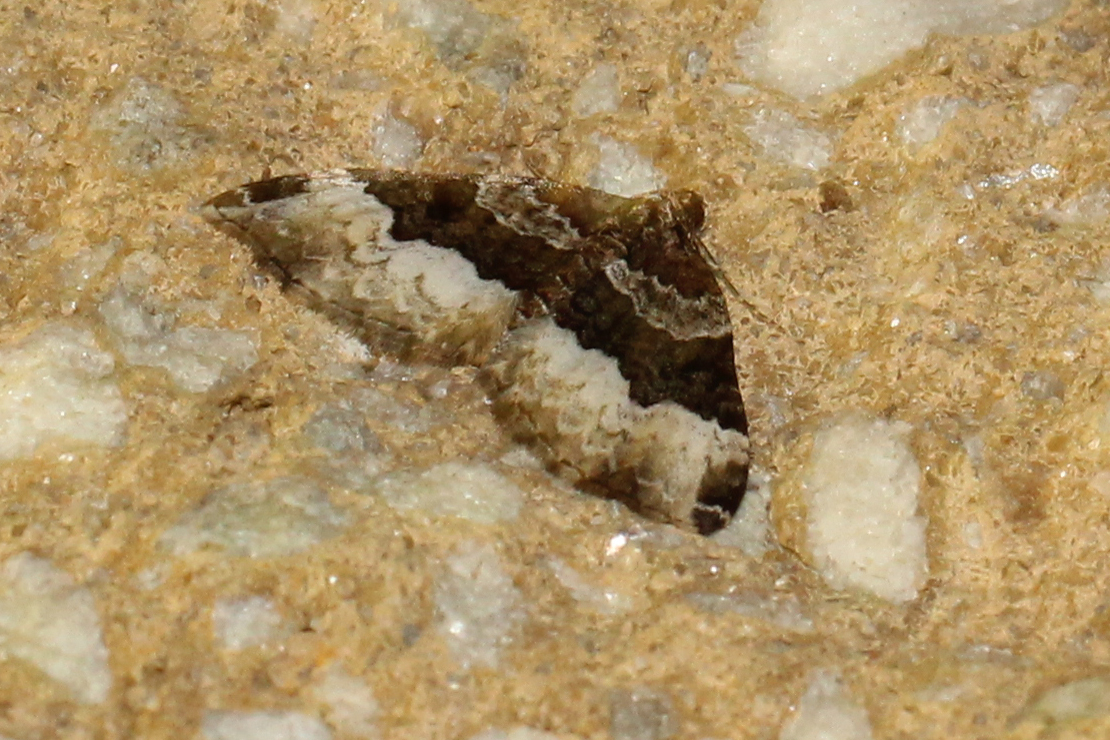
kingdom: Animalia
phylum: Arthropoda
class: Insecta
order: Lepidoptera
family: Geometridae
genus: Euphyia
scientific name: Euphyia intermediata
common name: Sharp-angled carpet
